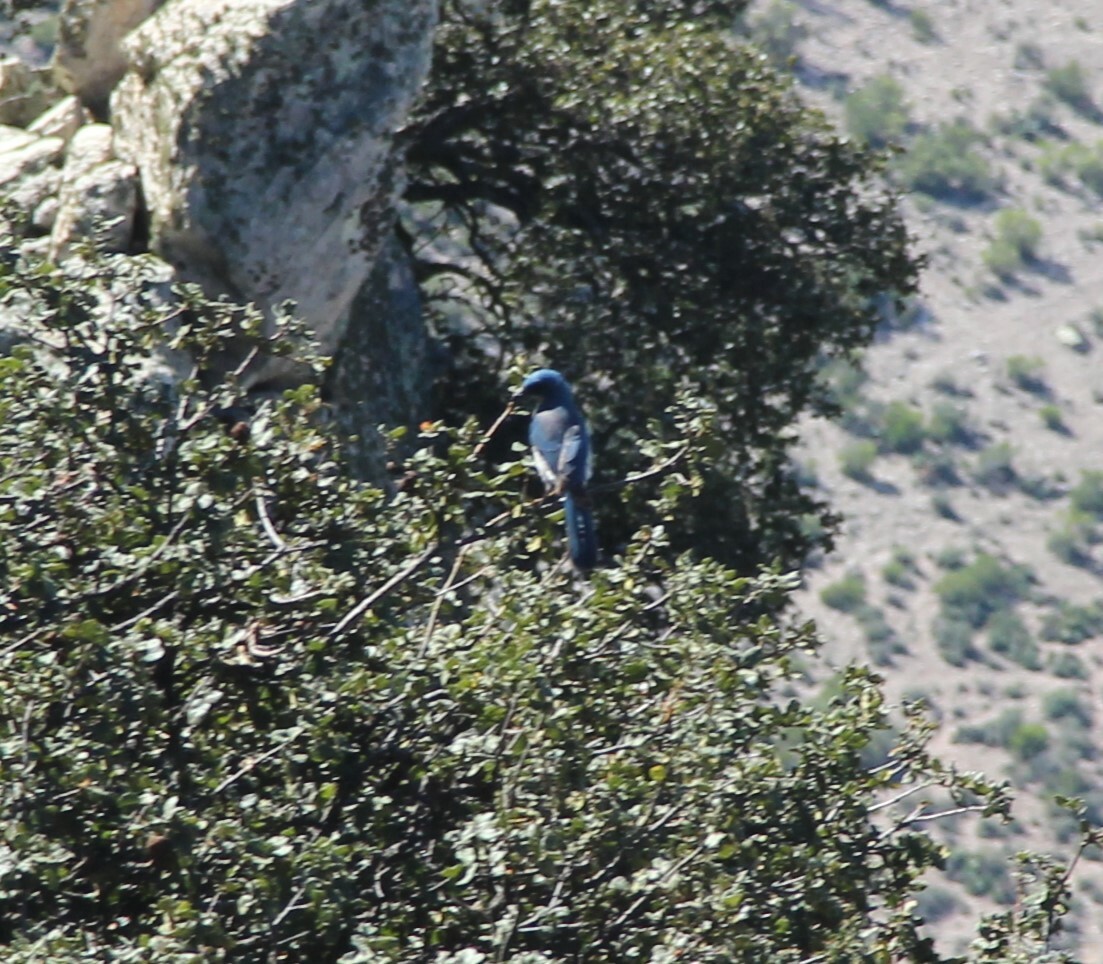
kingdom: Animalia
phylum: Chordata
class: Aves
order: Passeriformes
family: Corvidae
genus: Aphelocoma
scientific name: Aphelocoma wollweberi
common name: Mexican jay
